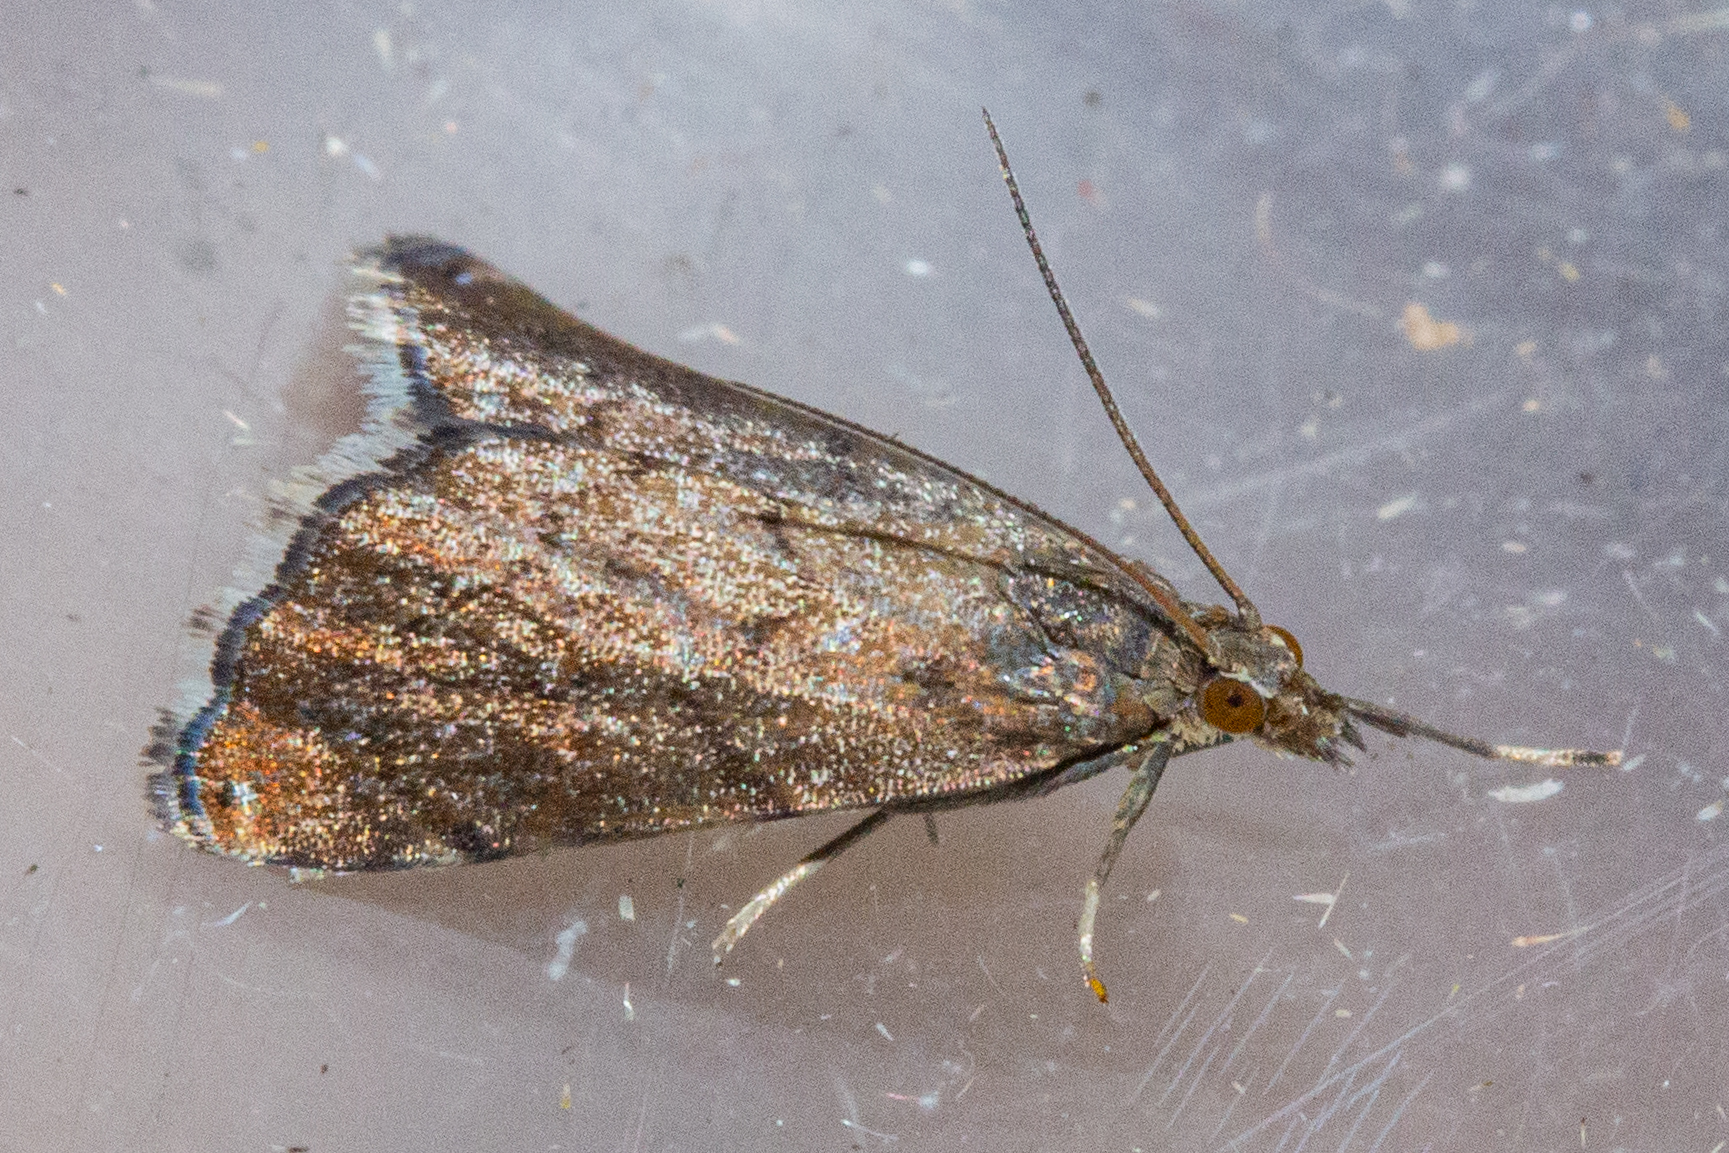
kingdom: Animalia
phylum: Arthropoda
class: Insecta
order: Lepidoptera
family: Crambidae
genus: Glaucocharis
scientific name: Glaucocharis epiphaea
